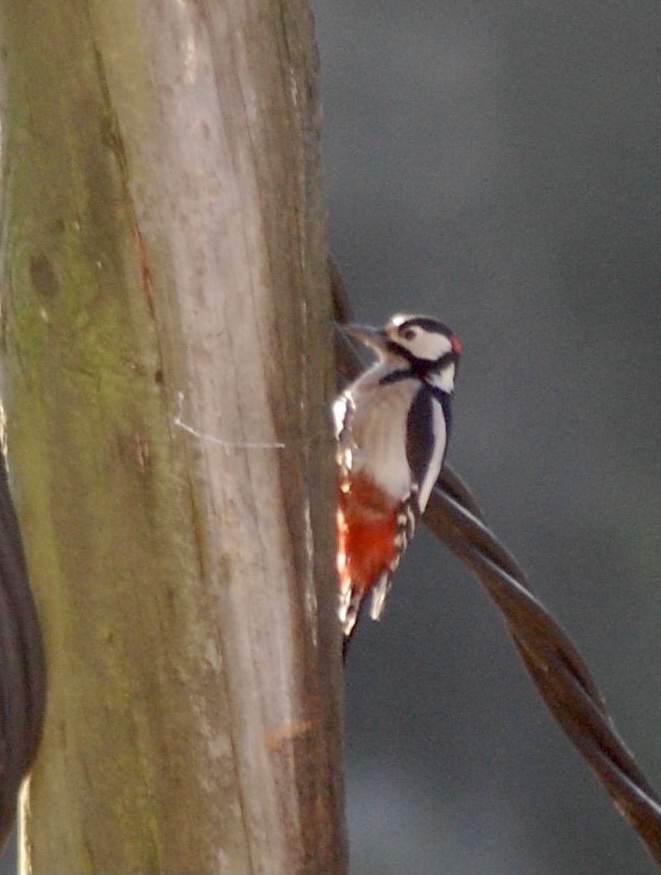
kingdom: Animalia
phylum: Chordata
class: Aves
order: Piciformes
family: Picidae
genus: Dendrocopos
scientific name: Dendrocopos major
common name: Great spotted woodpecker
